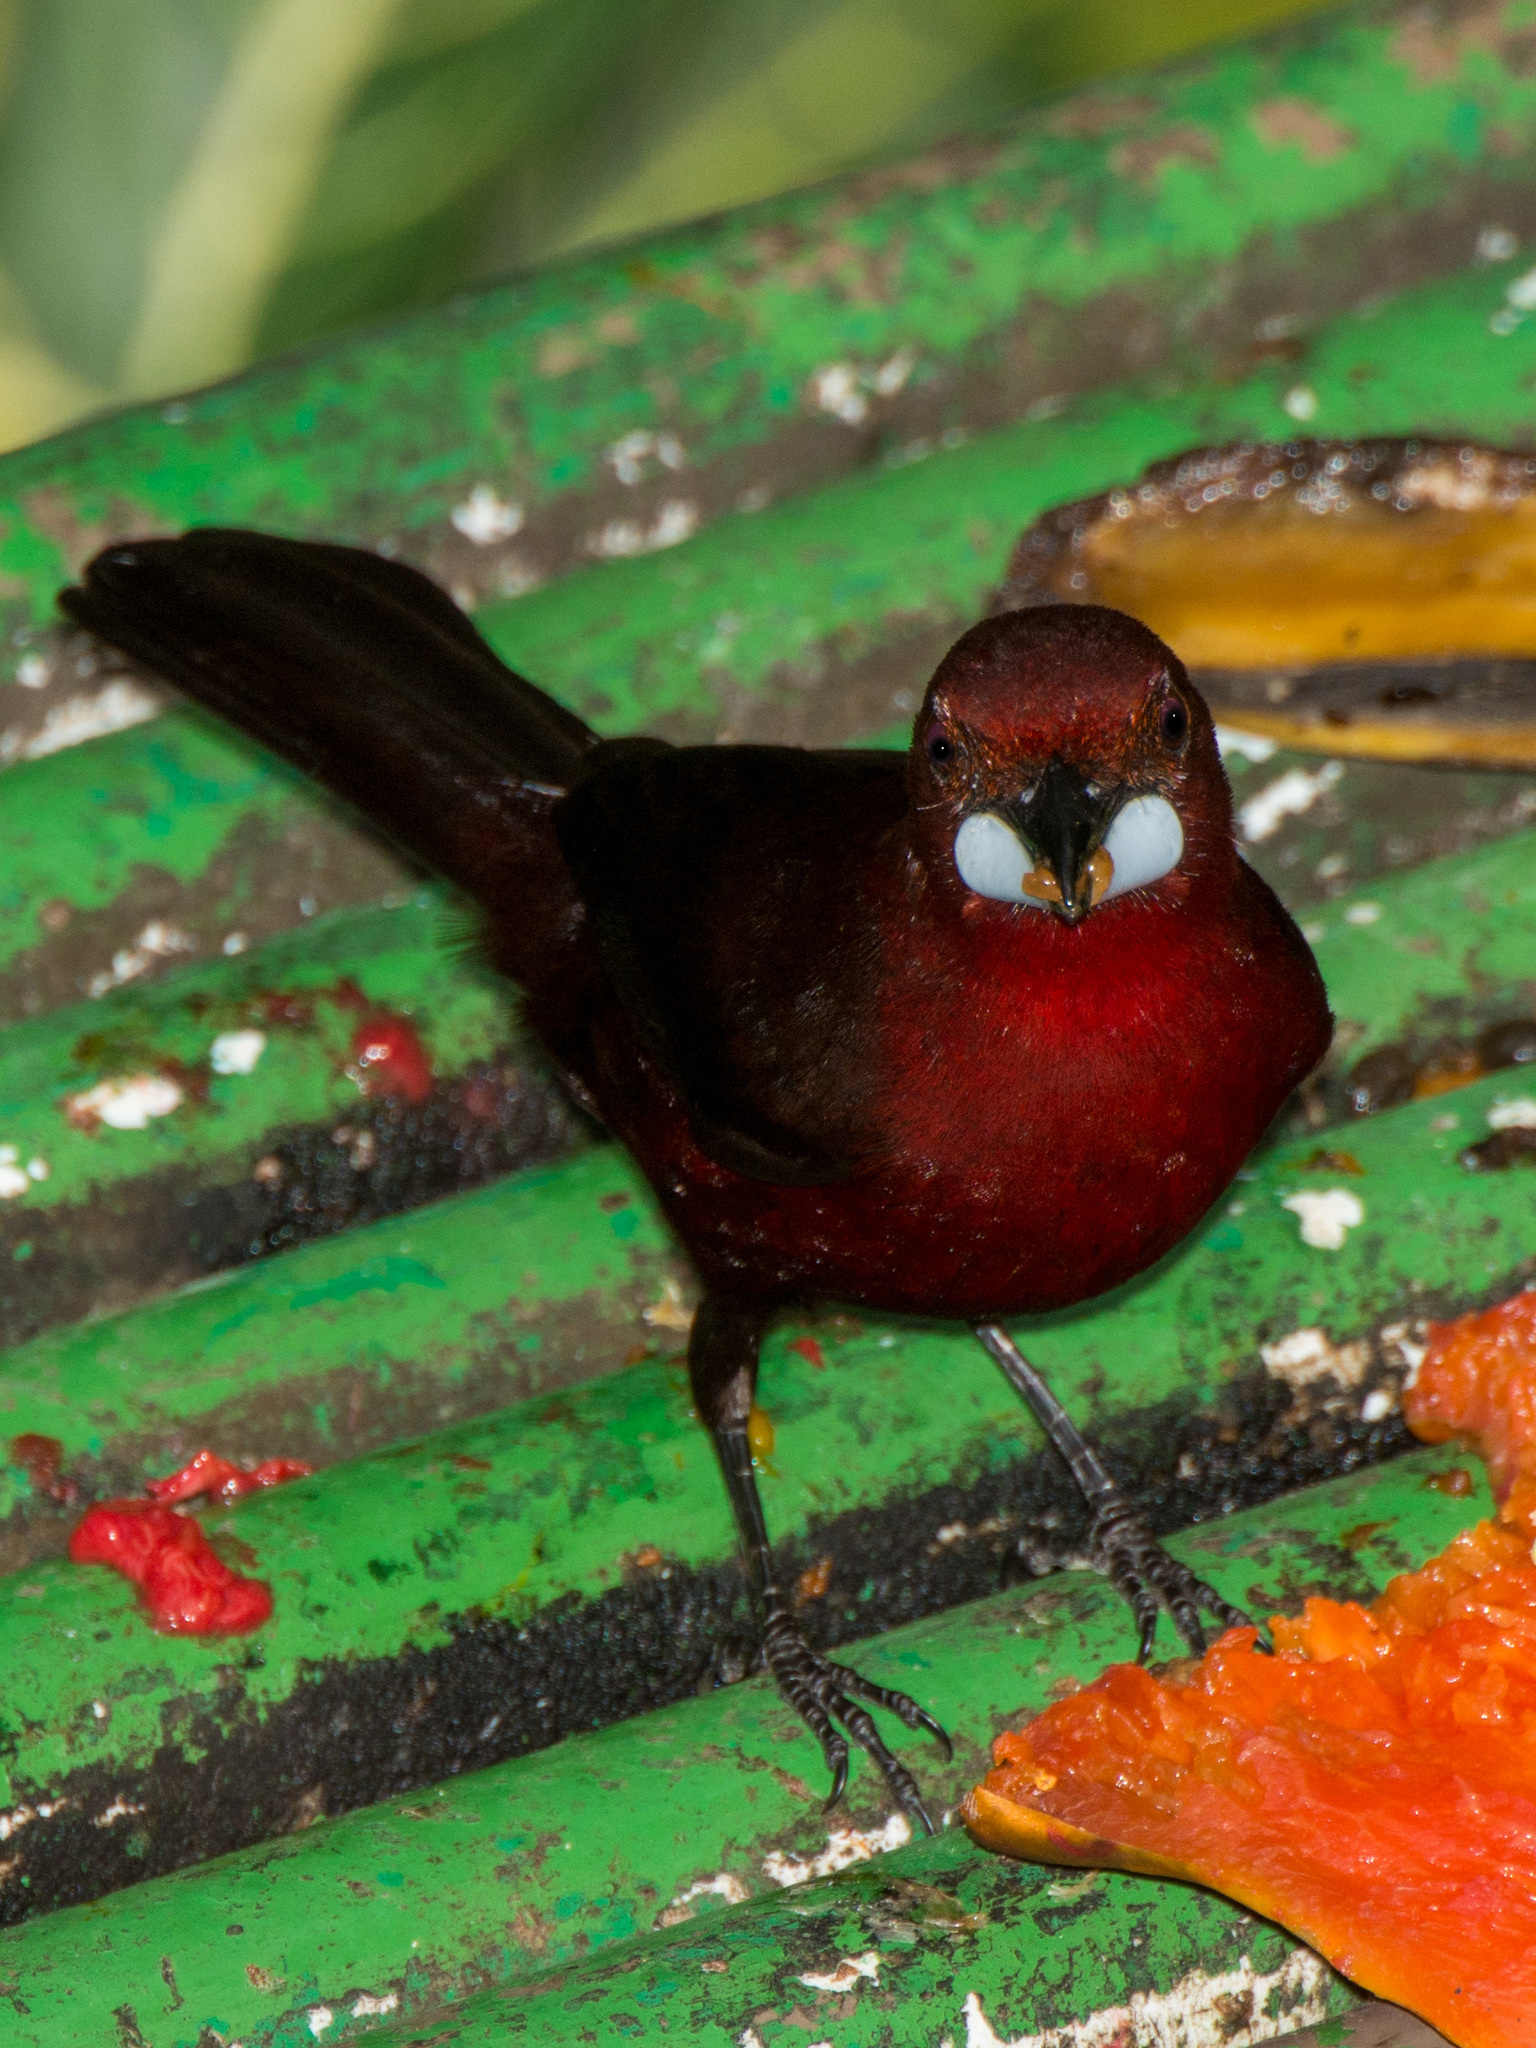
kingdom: Animalia
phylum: Chordata
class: Aves
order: Passeriformes
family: Thraupidae
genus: Ramphocelus
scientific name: Ramphocelus carbo
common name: Silver-beaked tanager
